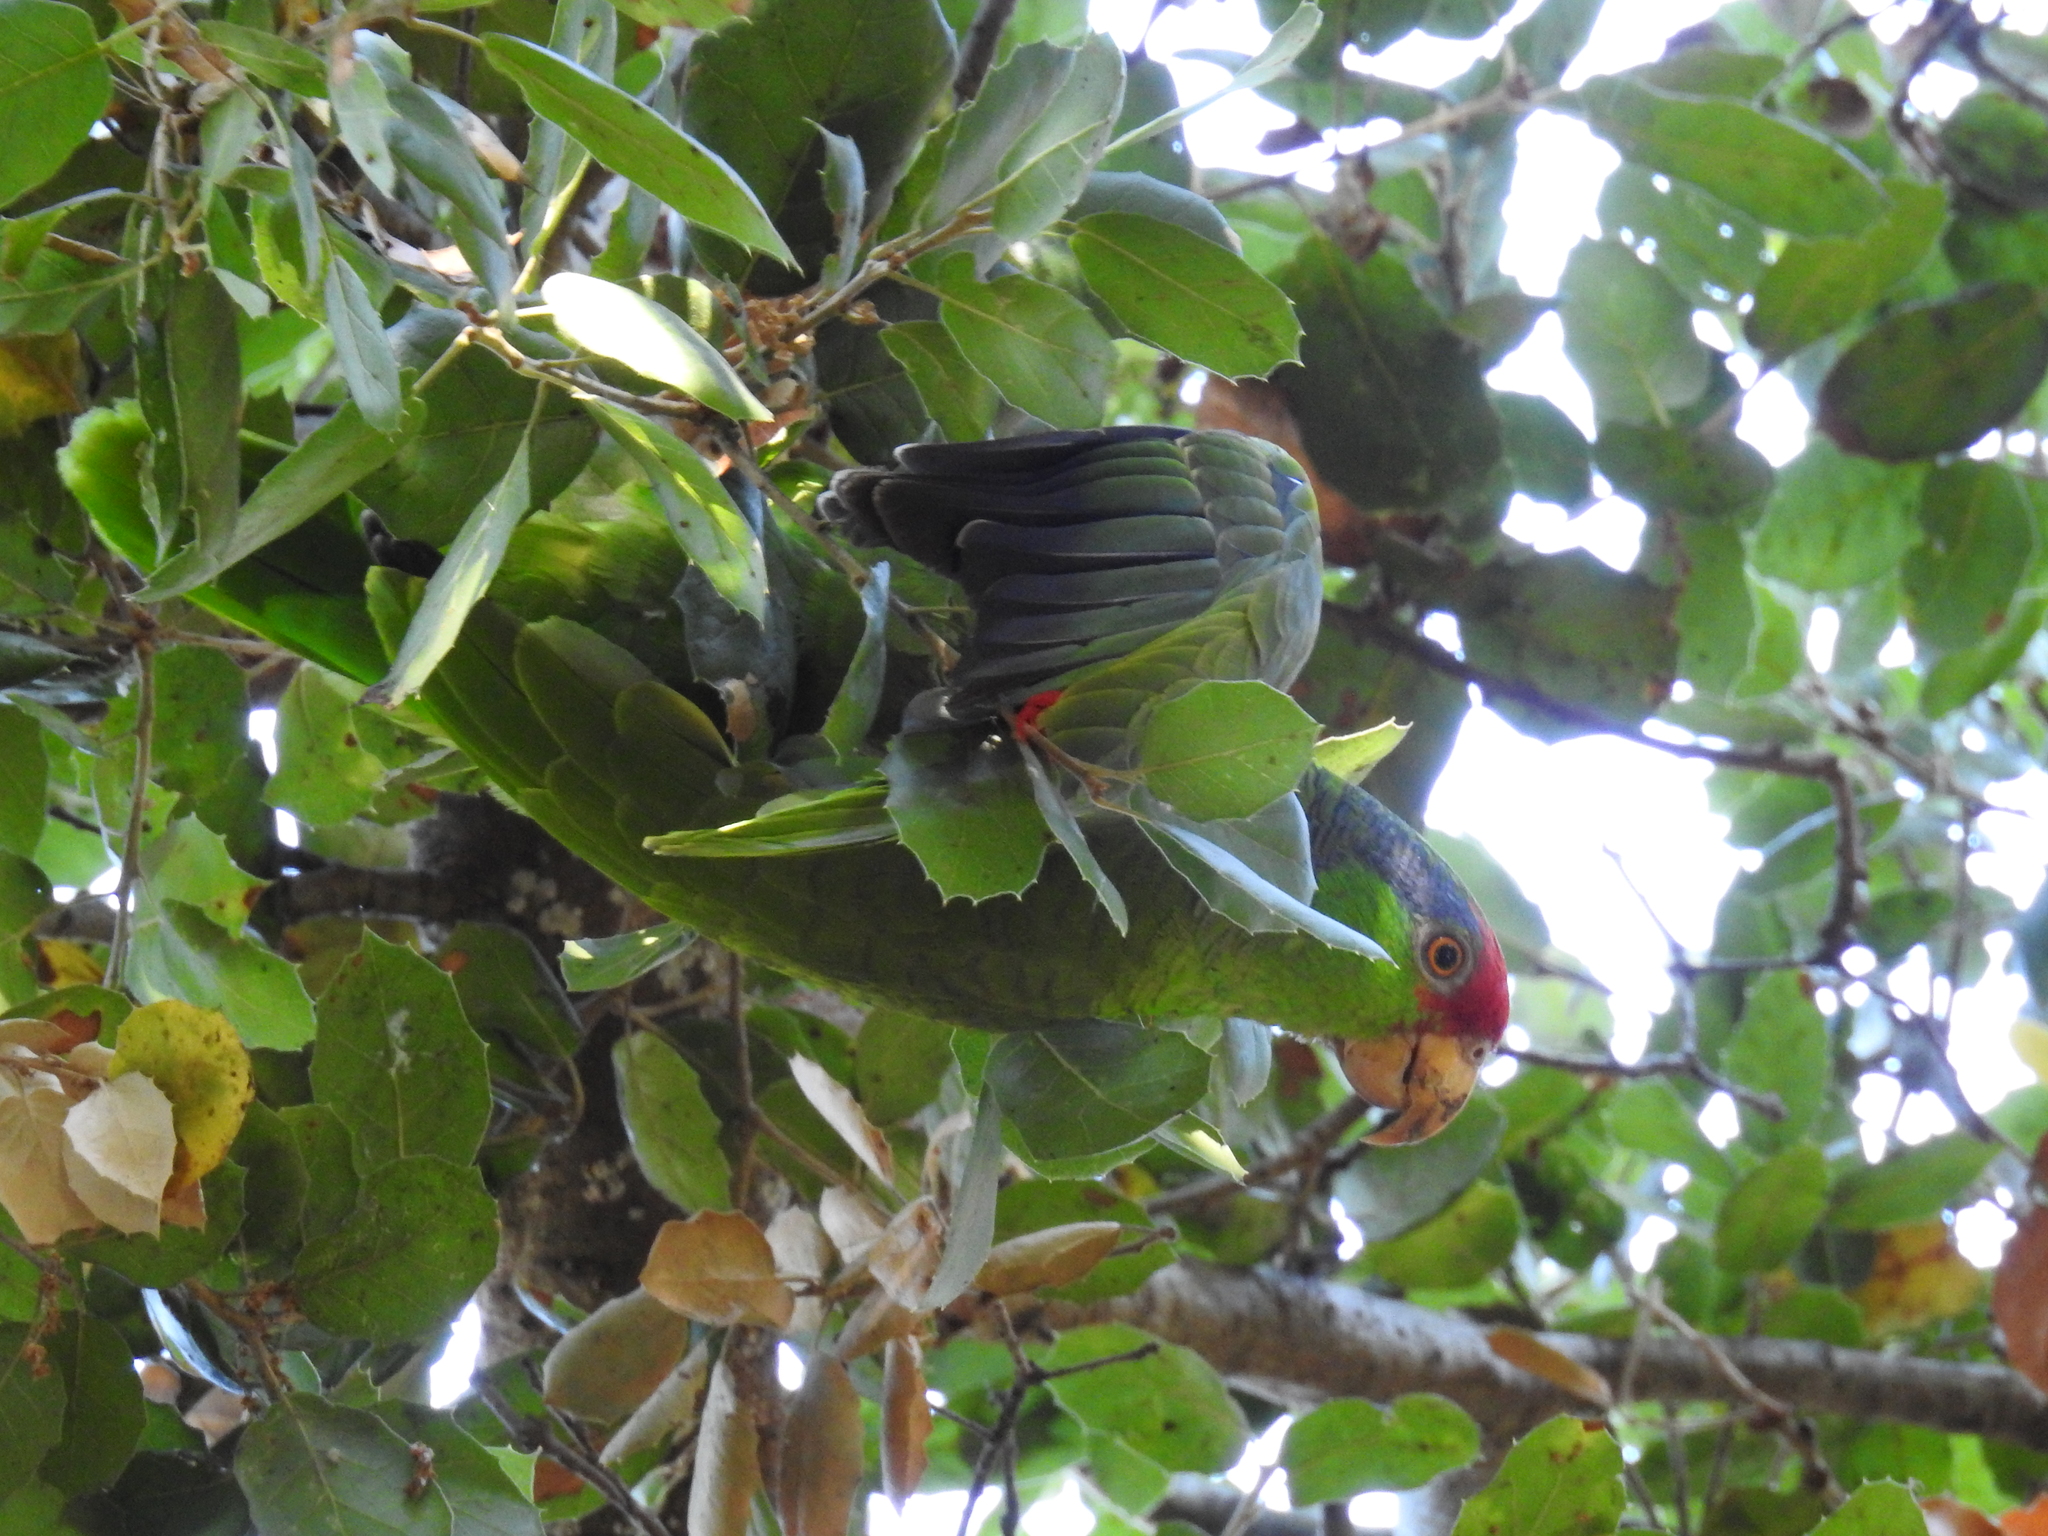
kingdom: Animalia
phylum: Chordata
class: Aves
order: Psittaciformes
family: Psittacidae
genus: Amazona
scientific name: Amazona viridigenalis
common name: Red-crowned amazon
